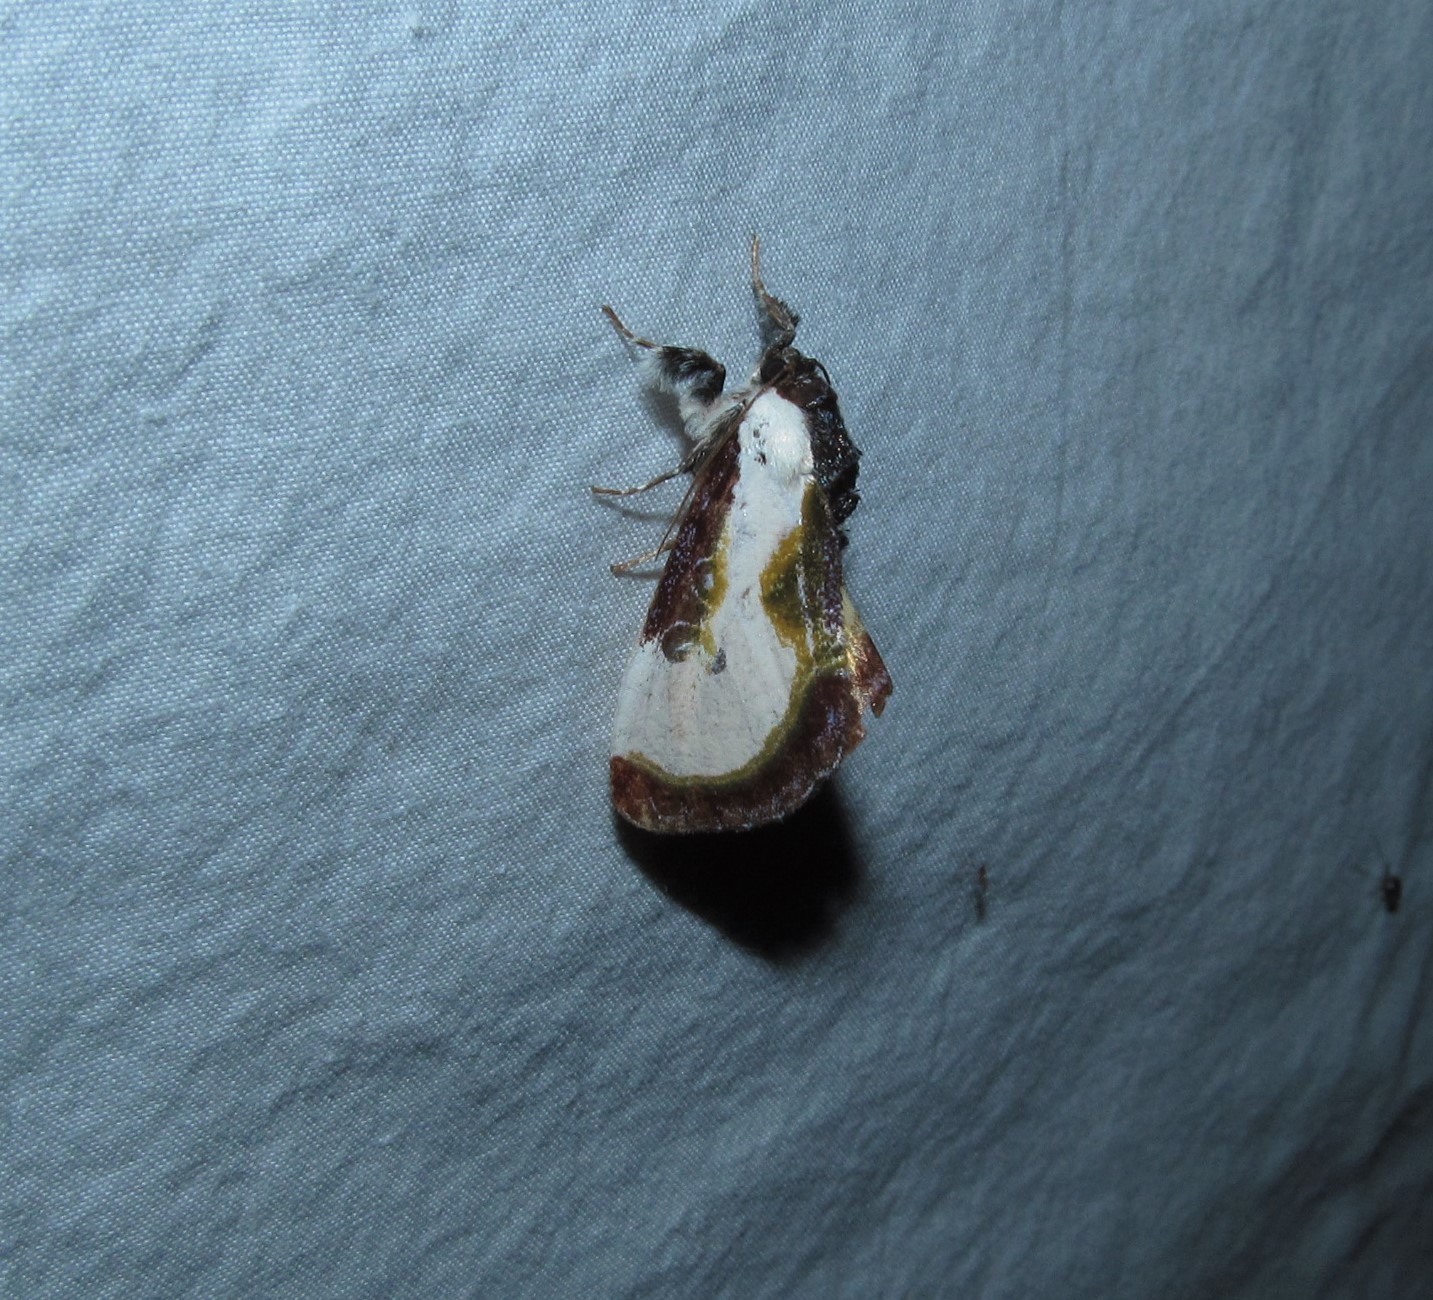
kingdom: Animalia
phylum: Arthropoda
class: Insecta
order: Lepidoptera
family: Noctuidae
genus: Eudryas
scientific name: Eudryas grata
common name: Beautiful wood-nymph
